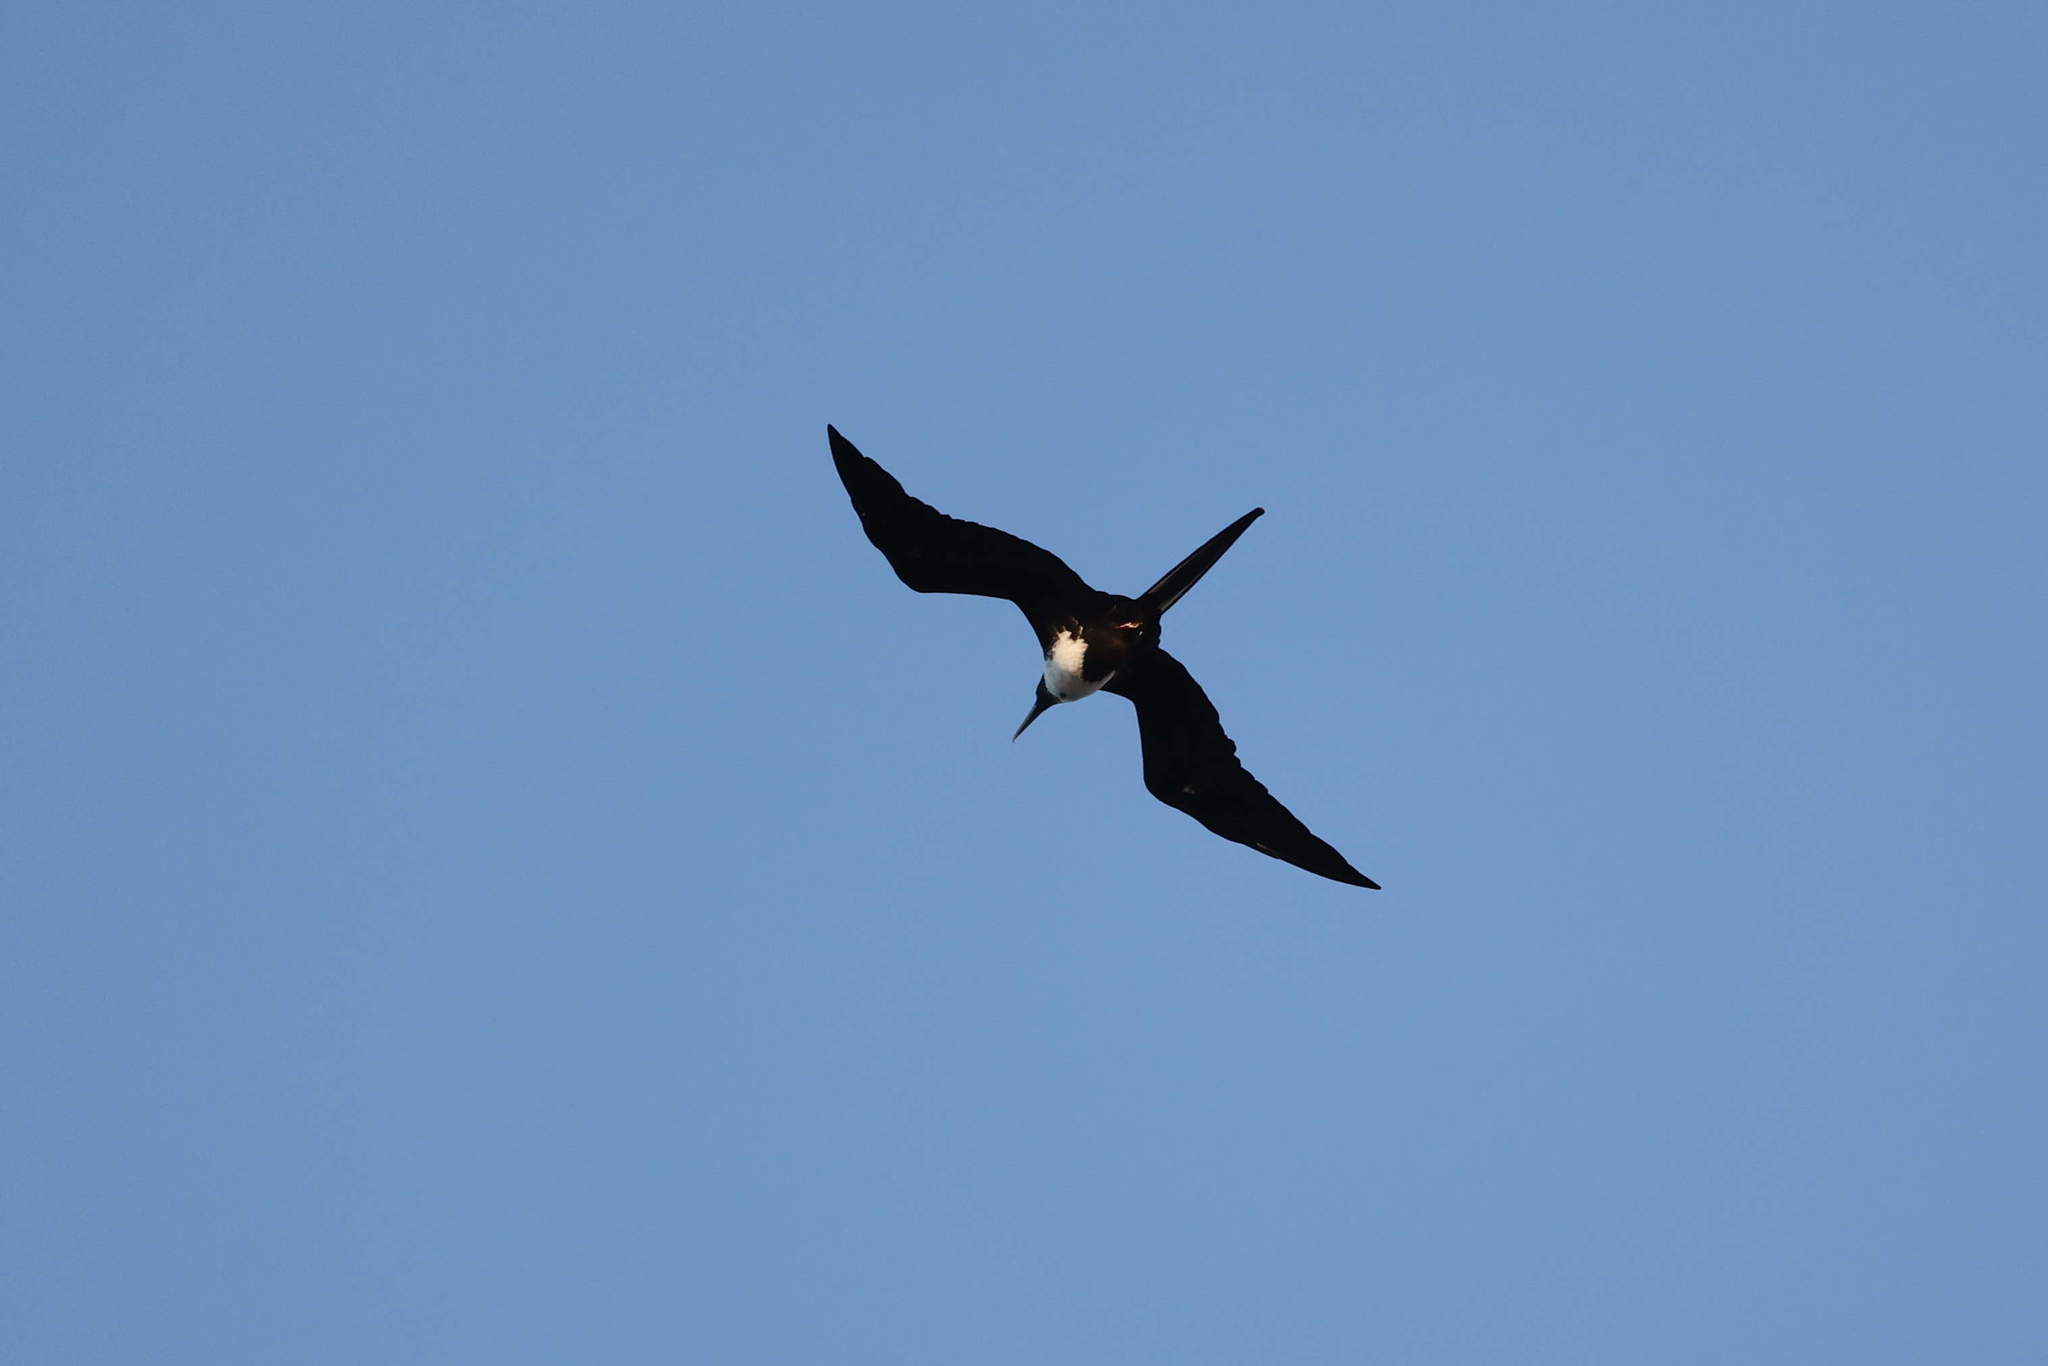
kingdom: Animalia
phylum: Chordata
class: Aves
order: Suliformes
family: Fregatidae
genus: Fregata
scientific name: Fregata magnificens
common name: Magnificent frigatebird
